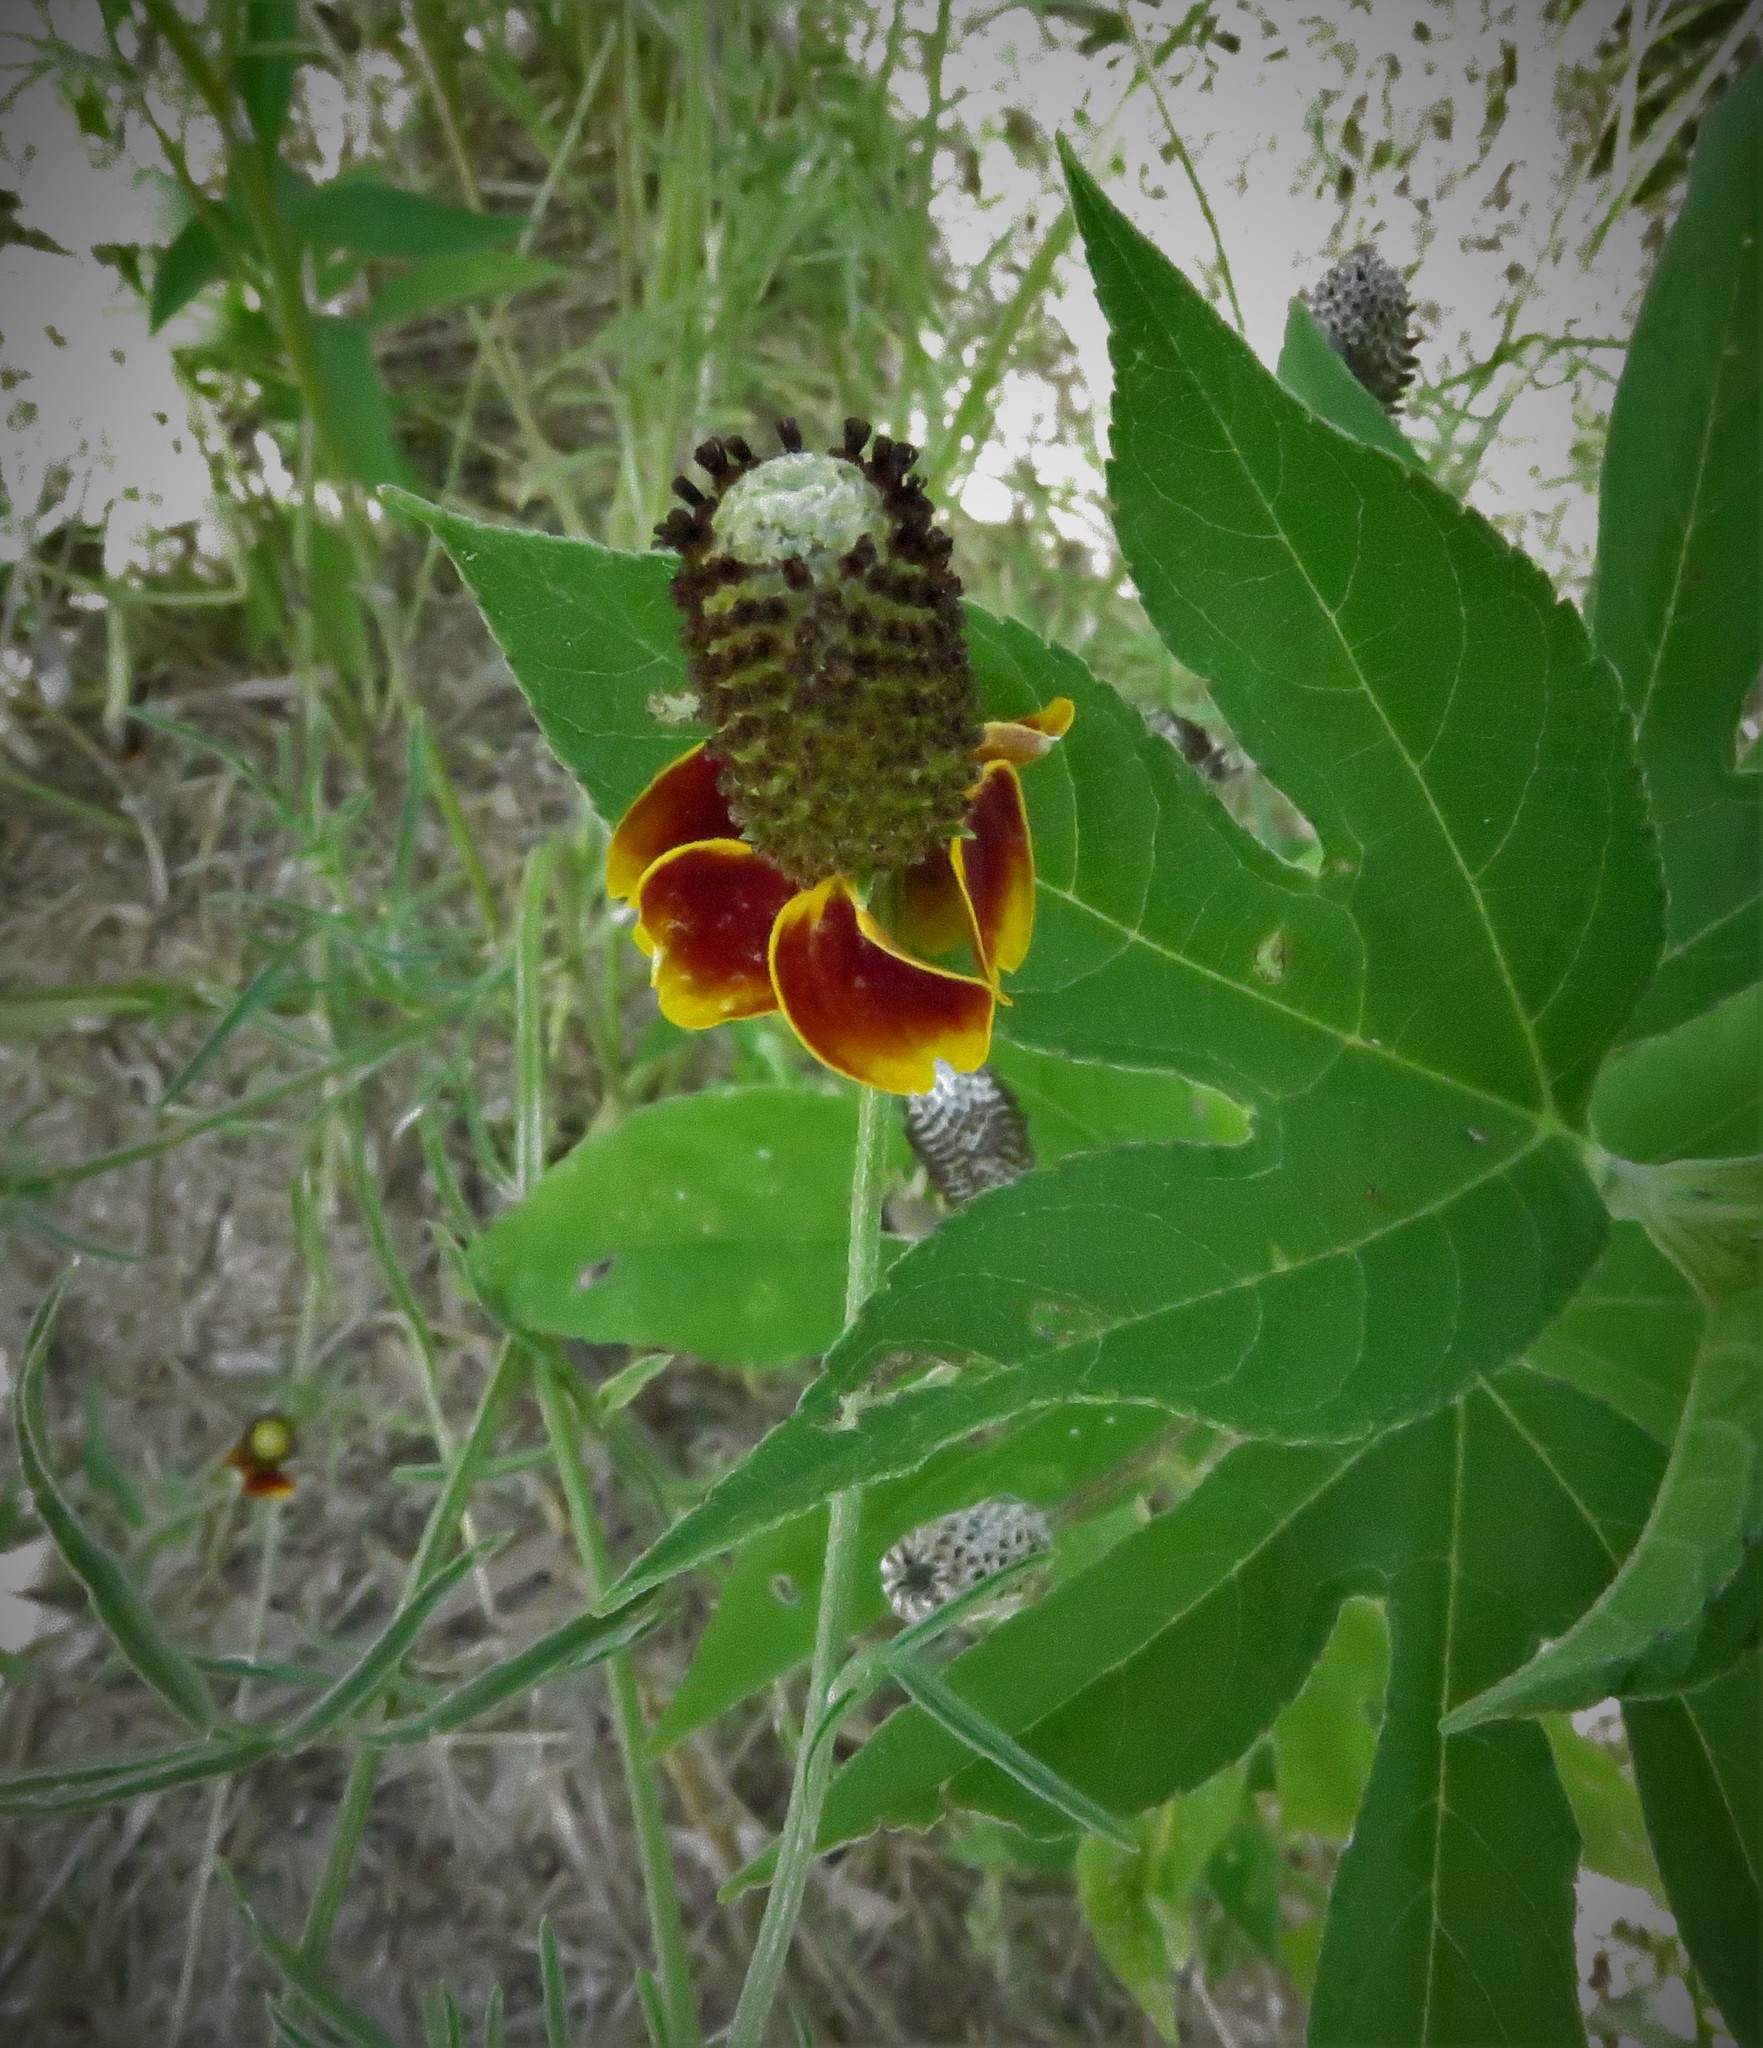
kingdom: Plantae
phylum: Tracheophyta
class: Magnoliopsida
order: Asterales
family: Asteraceae
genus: Ratibida
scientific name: Ratibida columnifera
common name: Prairie coneflower
